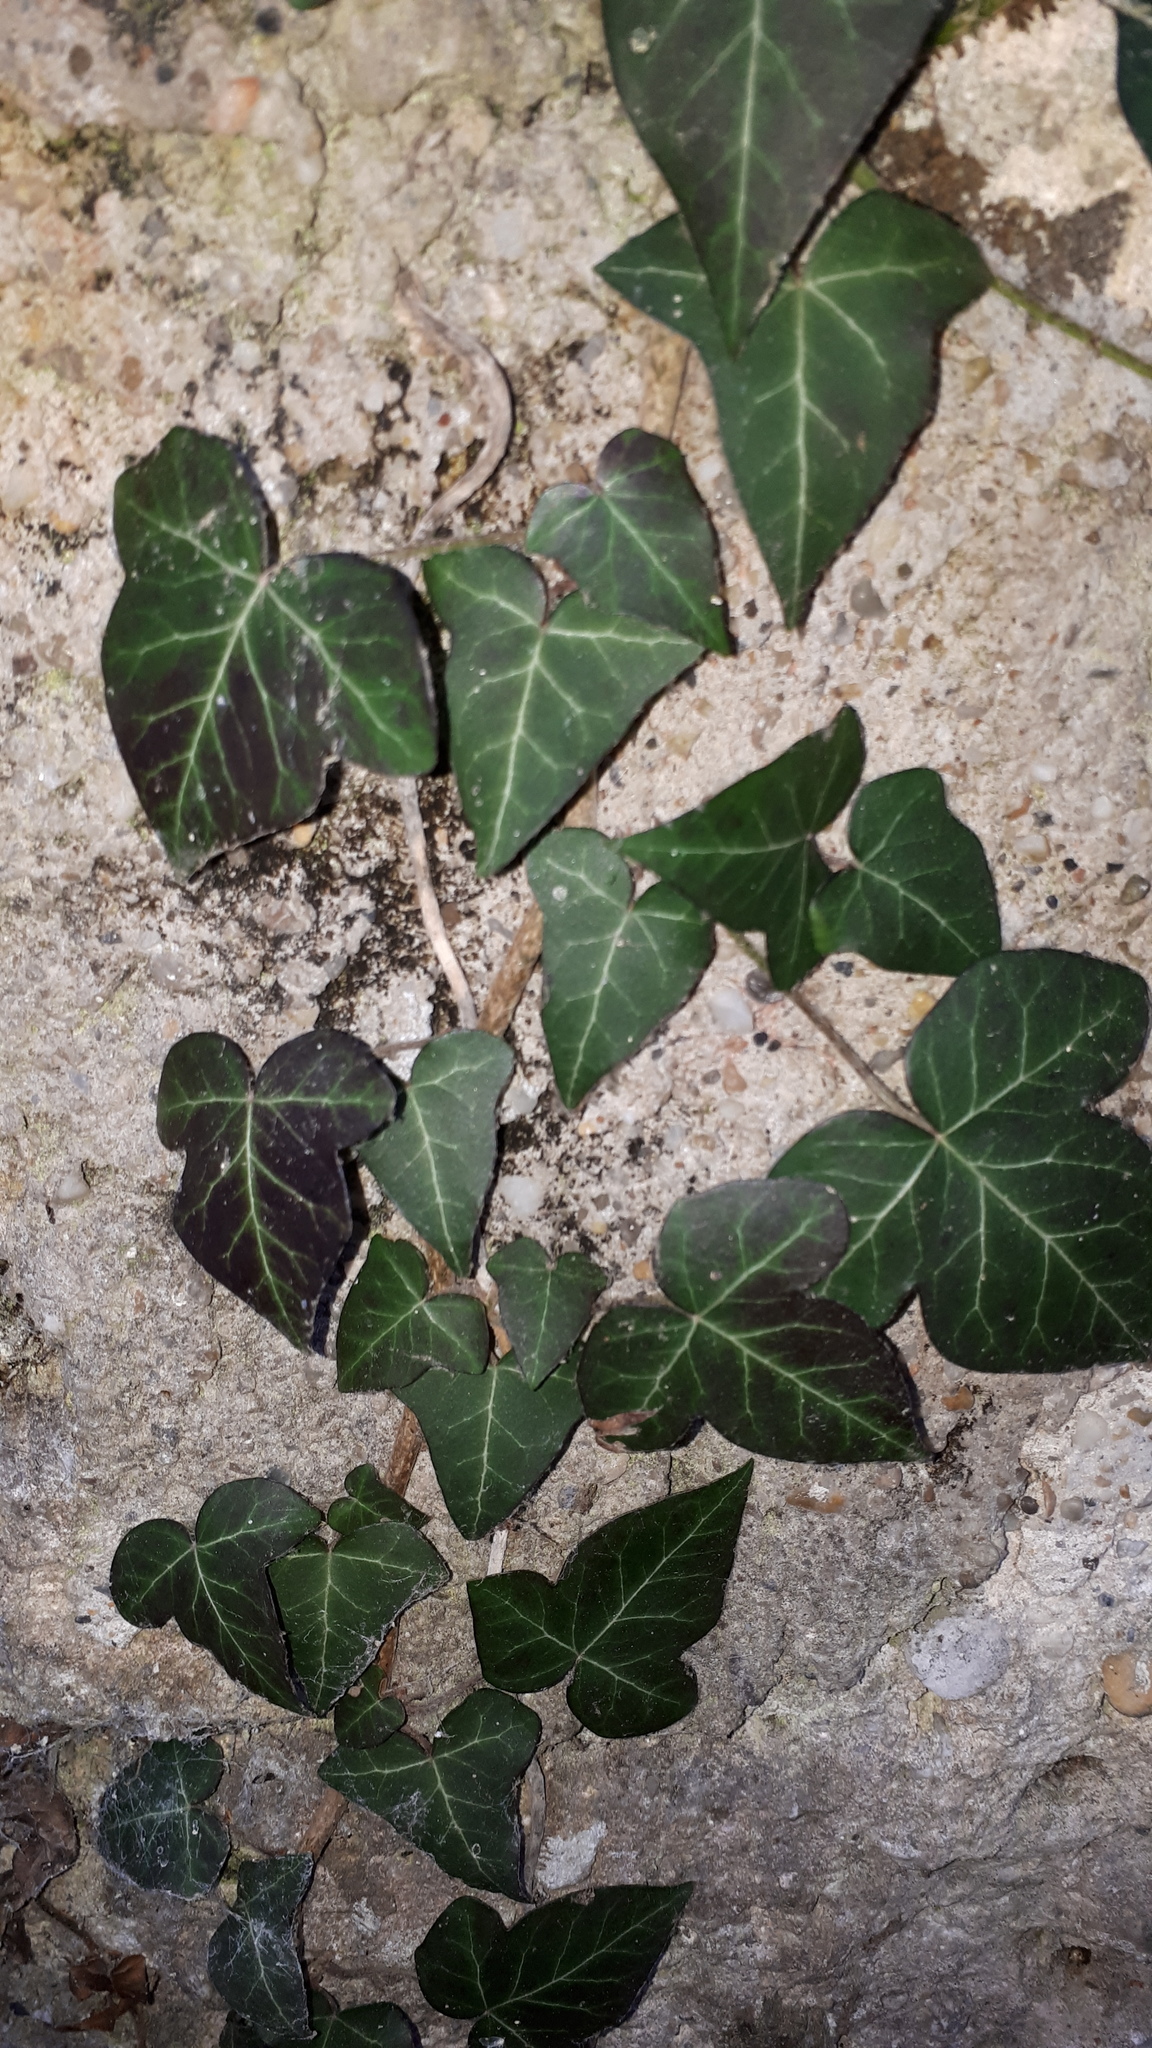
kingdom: Plantae
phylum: Tracheophyta
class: Magnoliopsida
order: Apiales
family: Araliaceae
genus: Hedera
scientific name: Hedera helix
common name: Ivy
